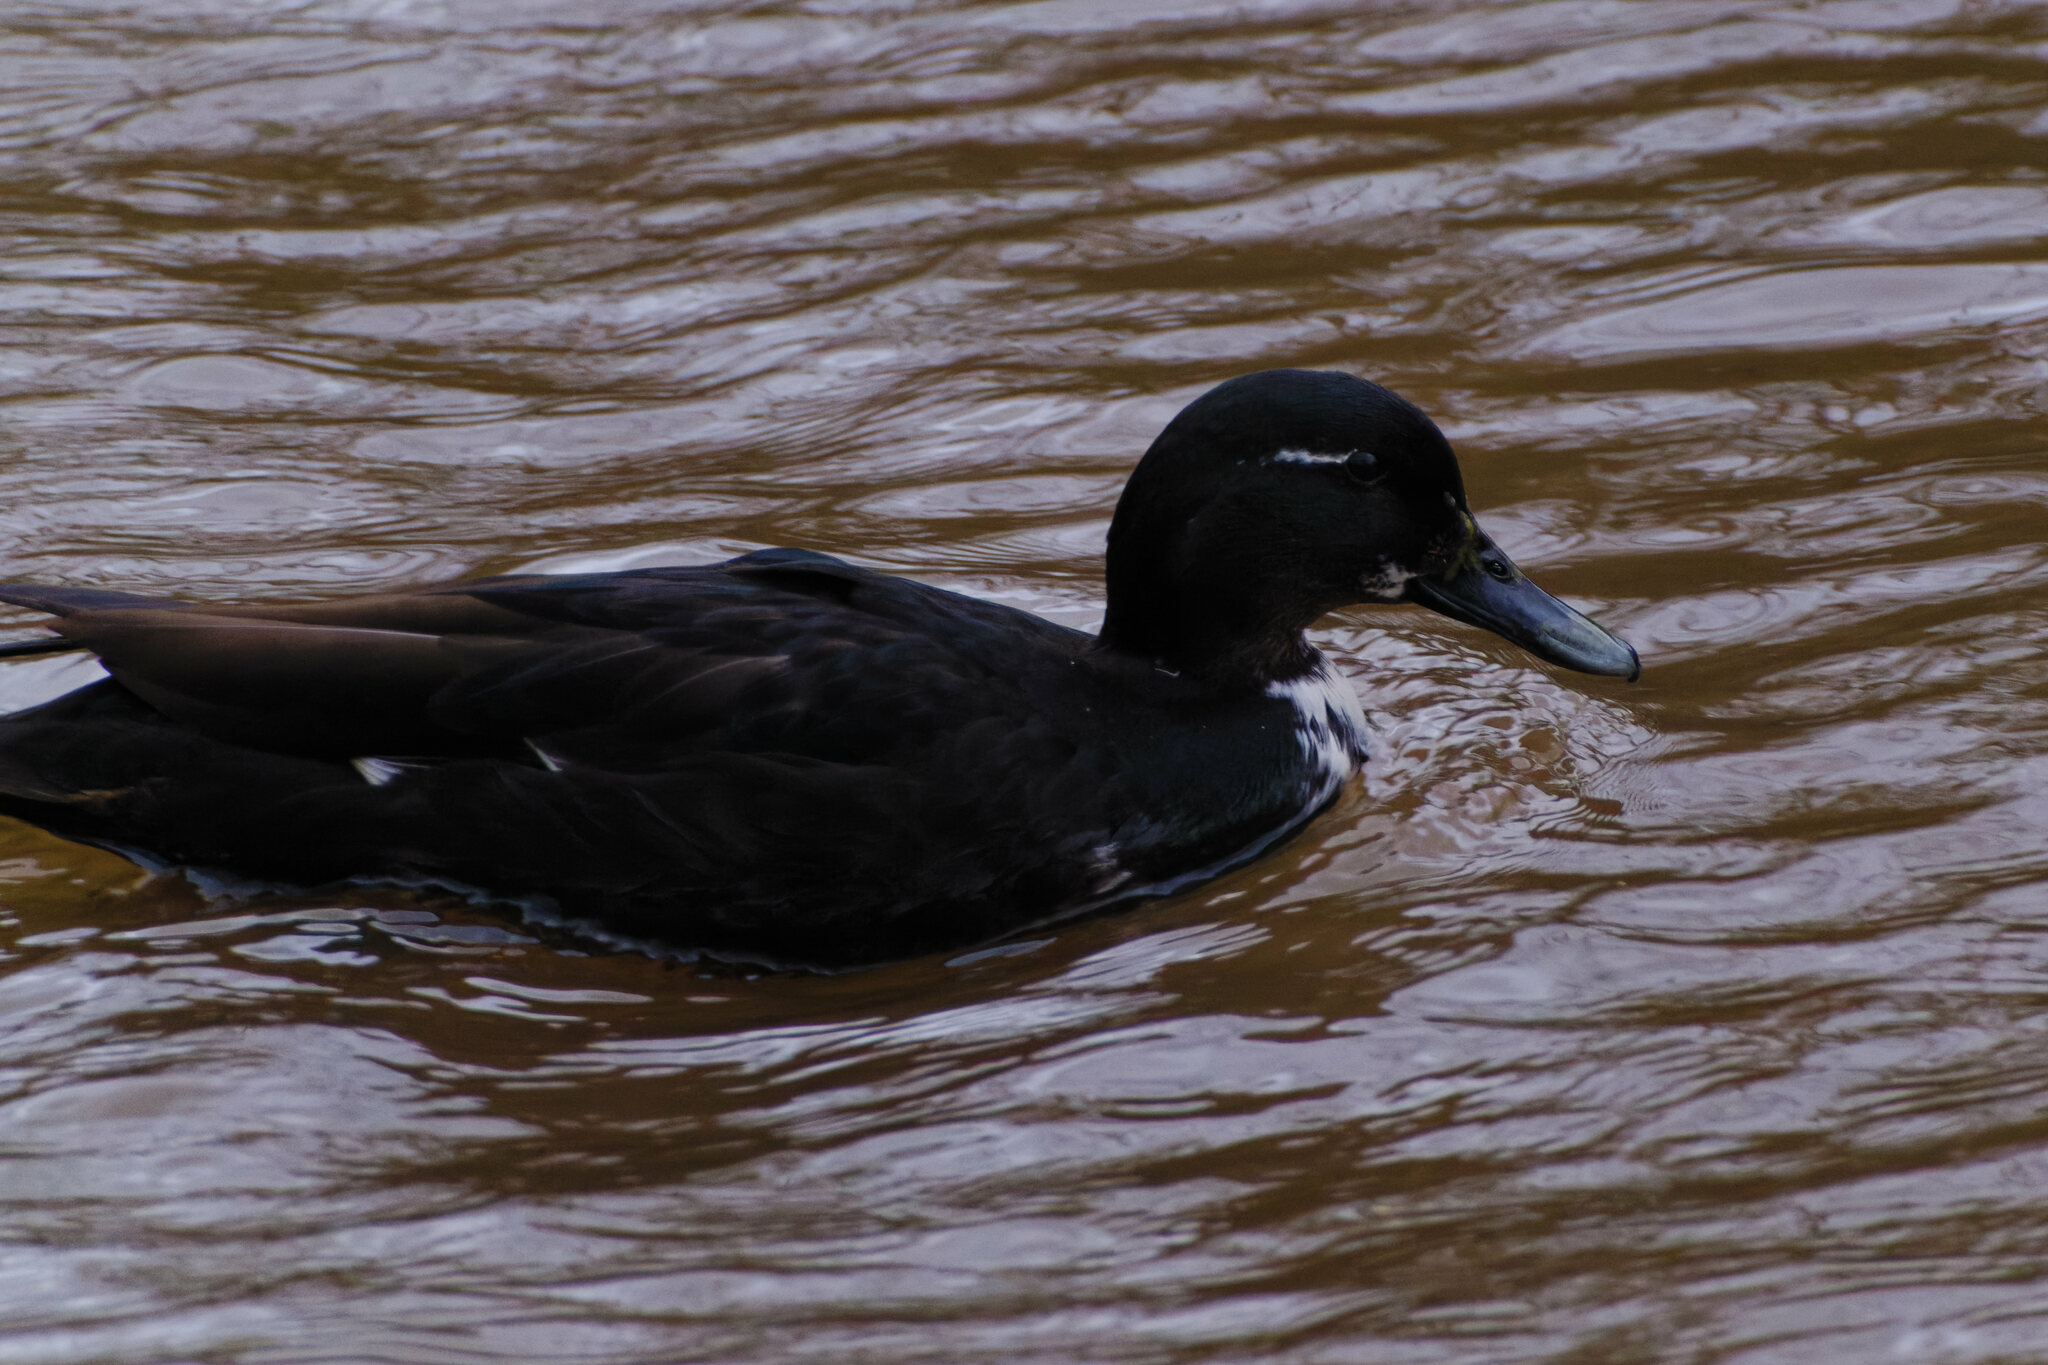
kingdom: Animalia
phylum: Chordata
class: Aves
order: Anseriformes
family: Anatidae
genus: Anas
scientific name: Anas platyrhynchos
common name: Mallard
